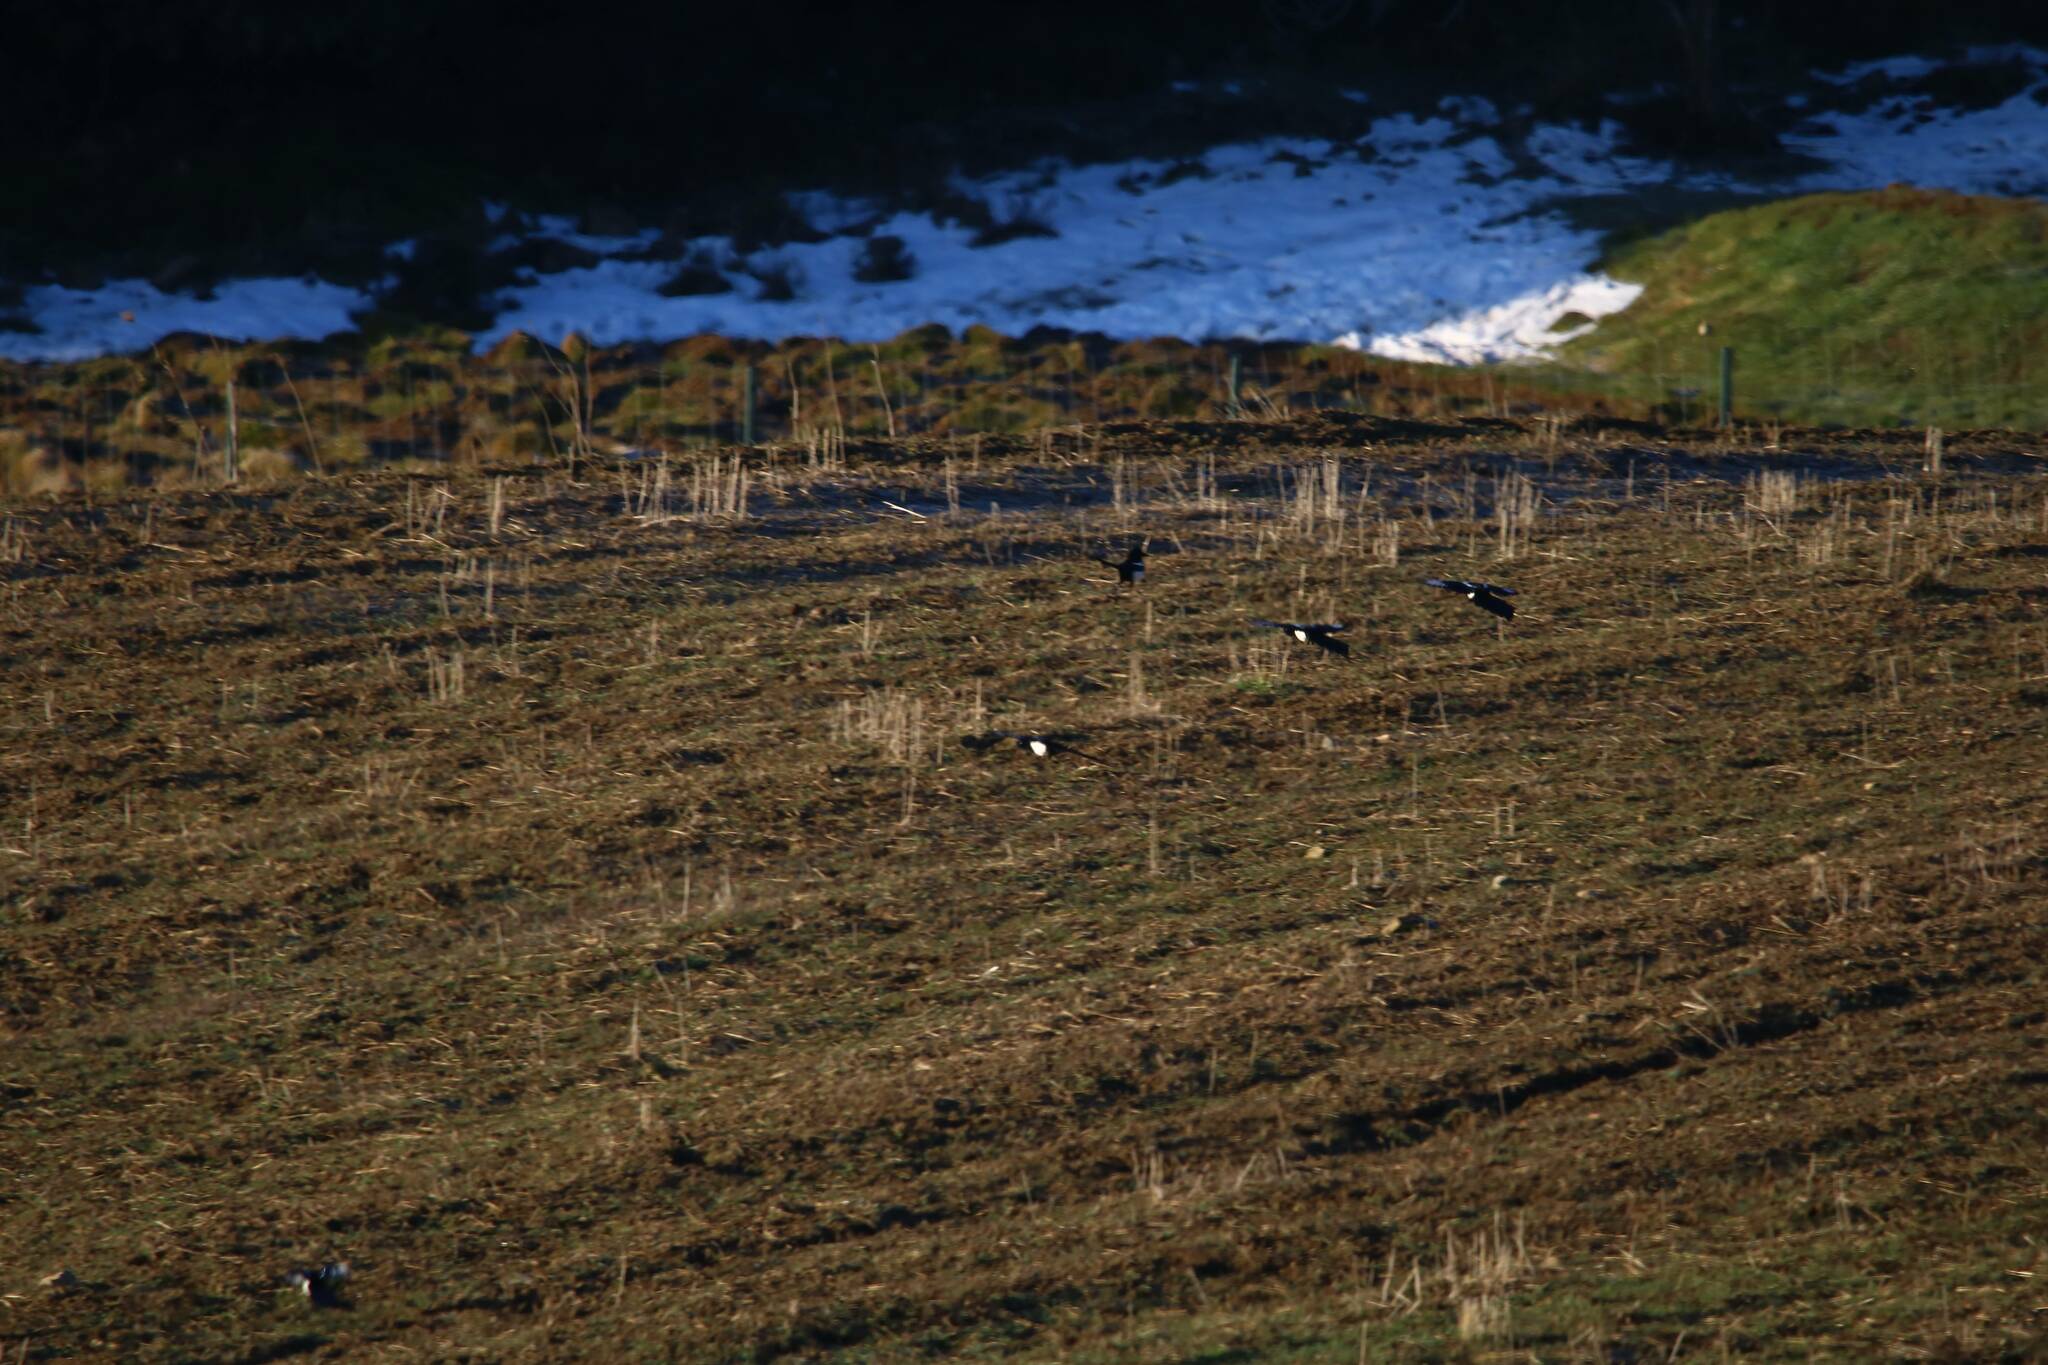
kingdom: Animalia
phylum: Chordata
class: Aves
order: Passeriformes
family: Corvidae
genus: Pica
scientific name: Pica mauritanica
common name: Maghreb magpie
